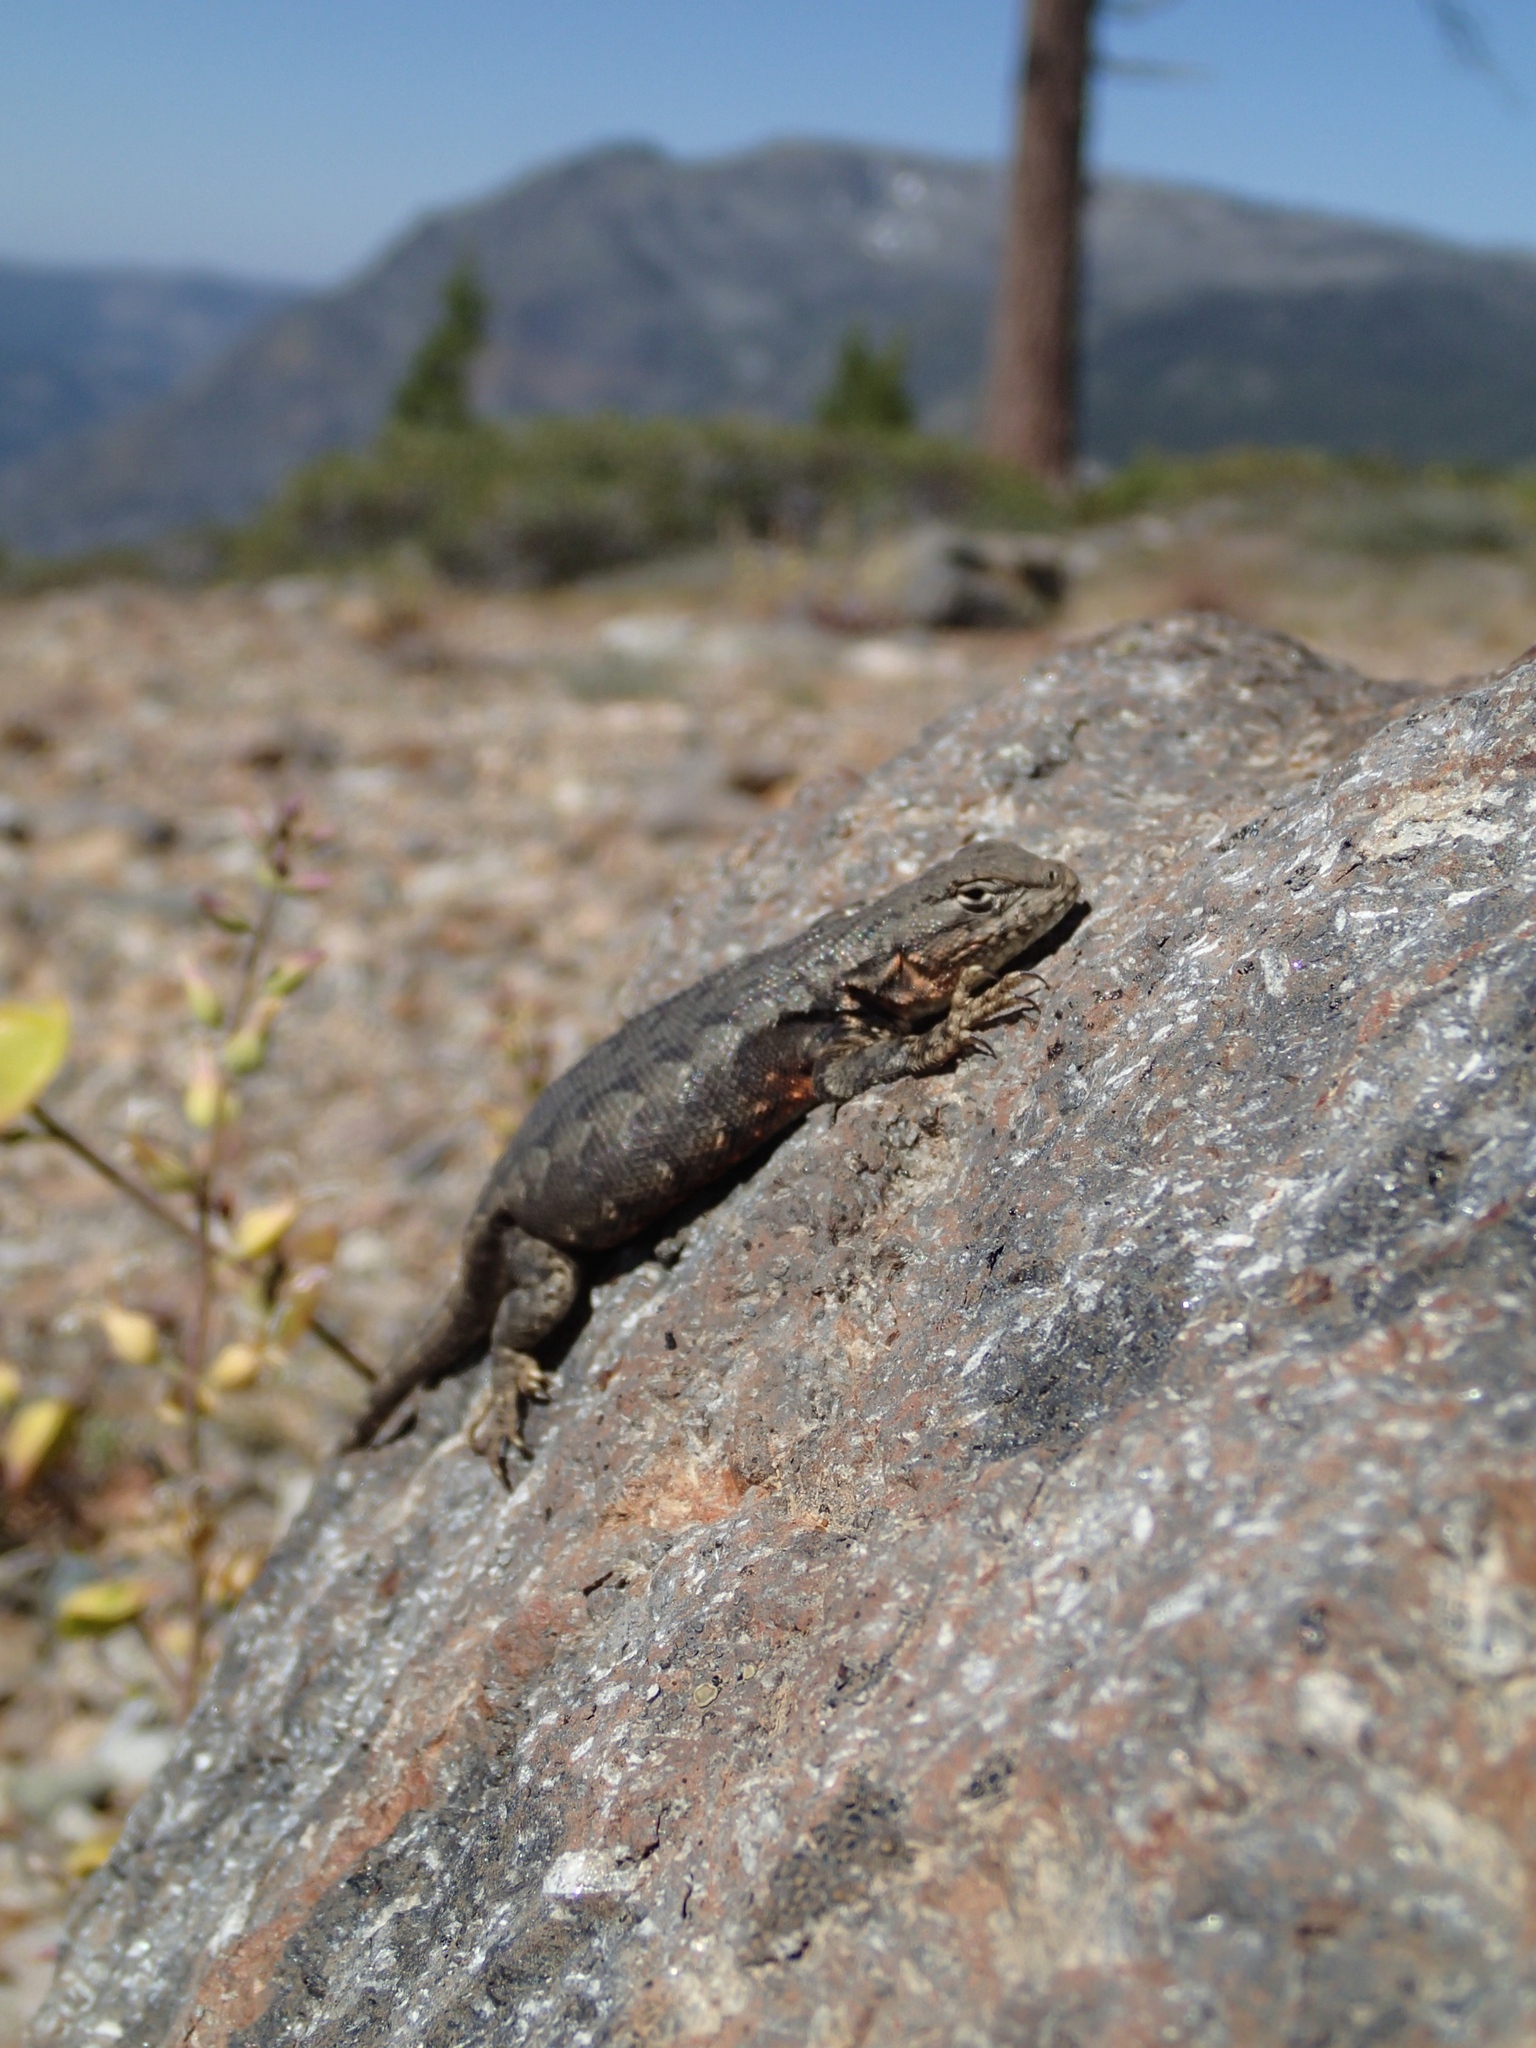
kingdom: Animalia
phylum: Chordata
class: Squamata
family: Phrynosomatidae
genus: Sceloporus
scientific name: Sceloporus graciosus
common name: Sagebrush lizard
